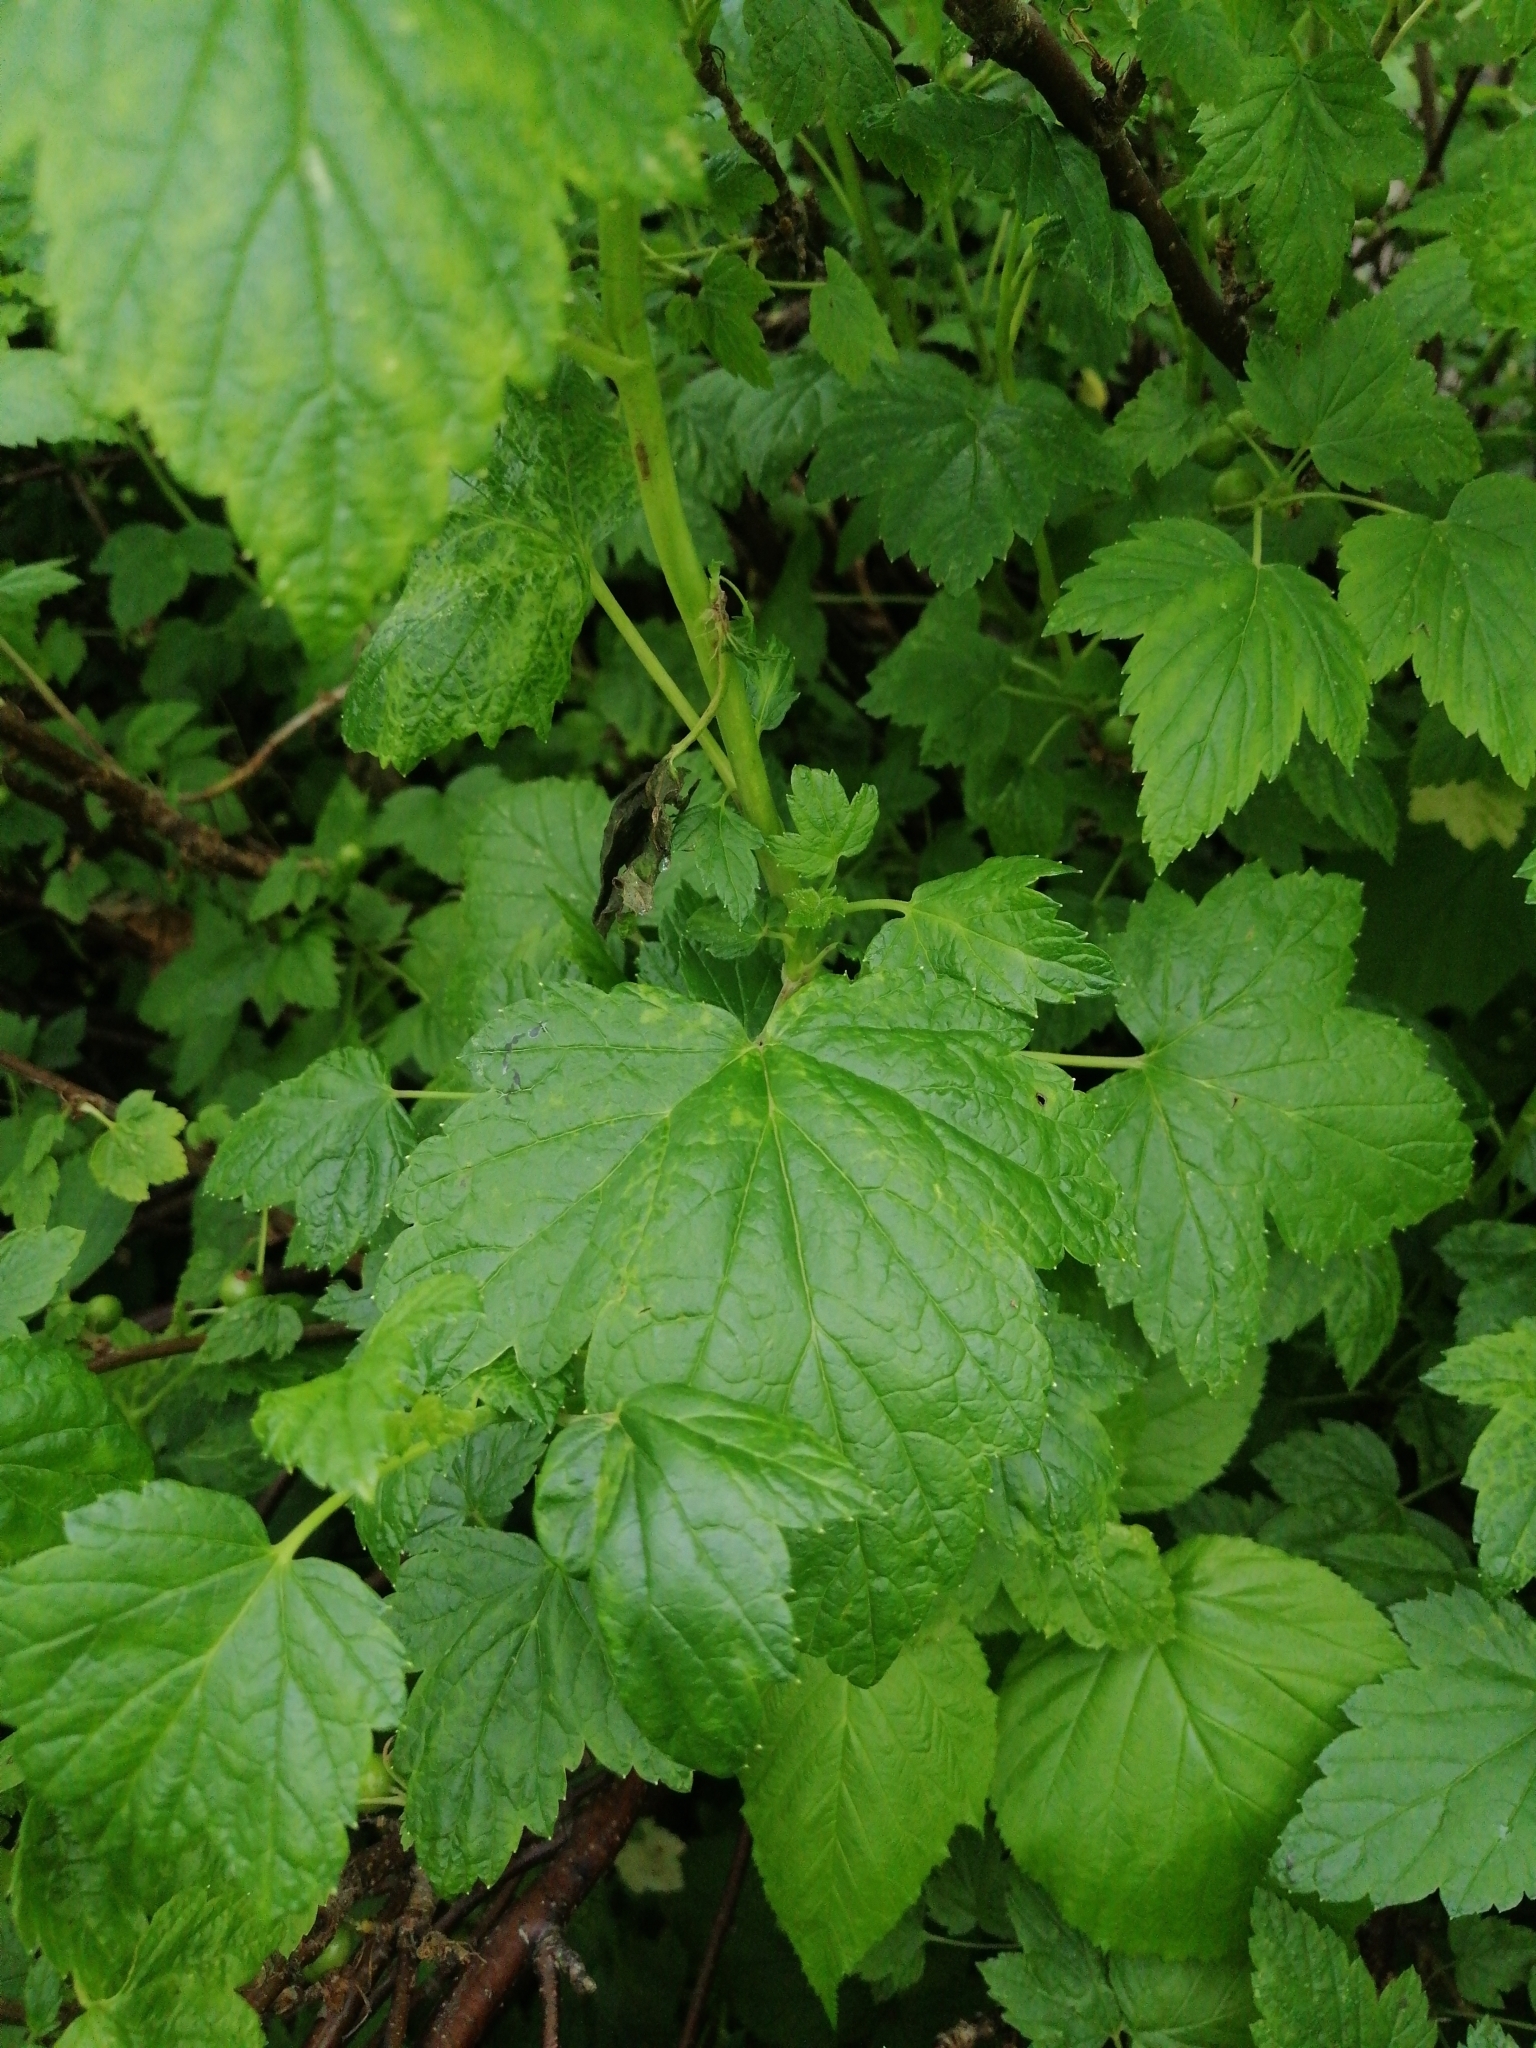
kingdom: Plantae
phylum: Tracheophyta
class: Magnoliopsida
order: Saxifragales
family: Grossulariaceae
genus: Ribes
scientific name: Ribes nigrum
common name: Black currant
